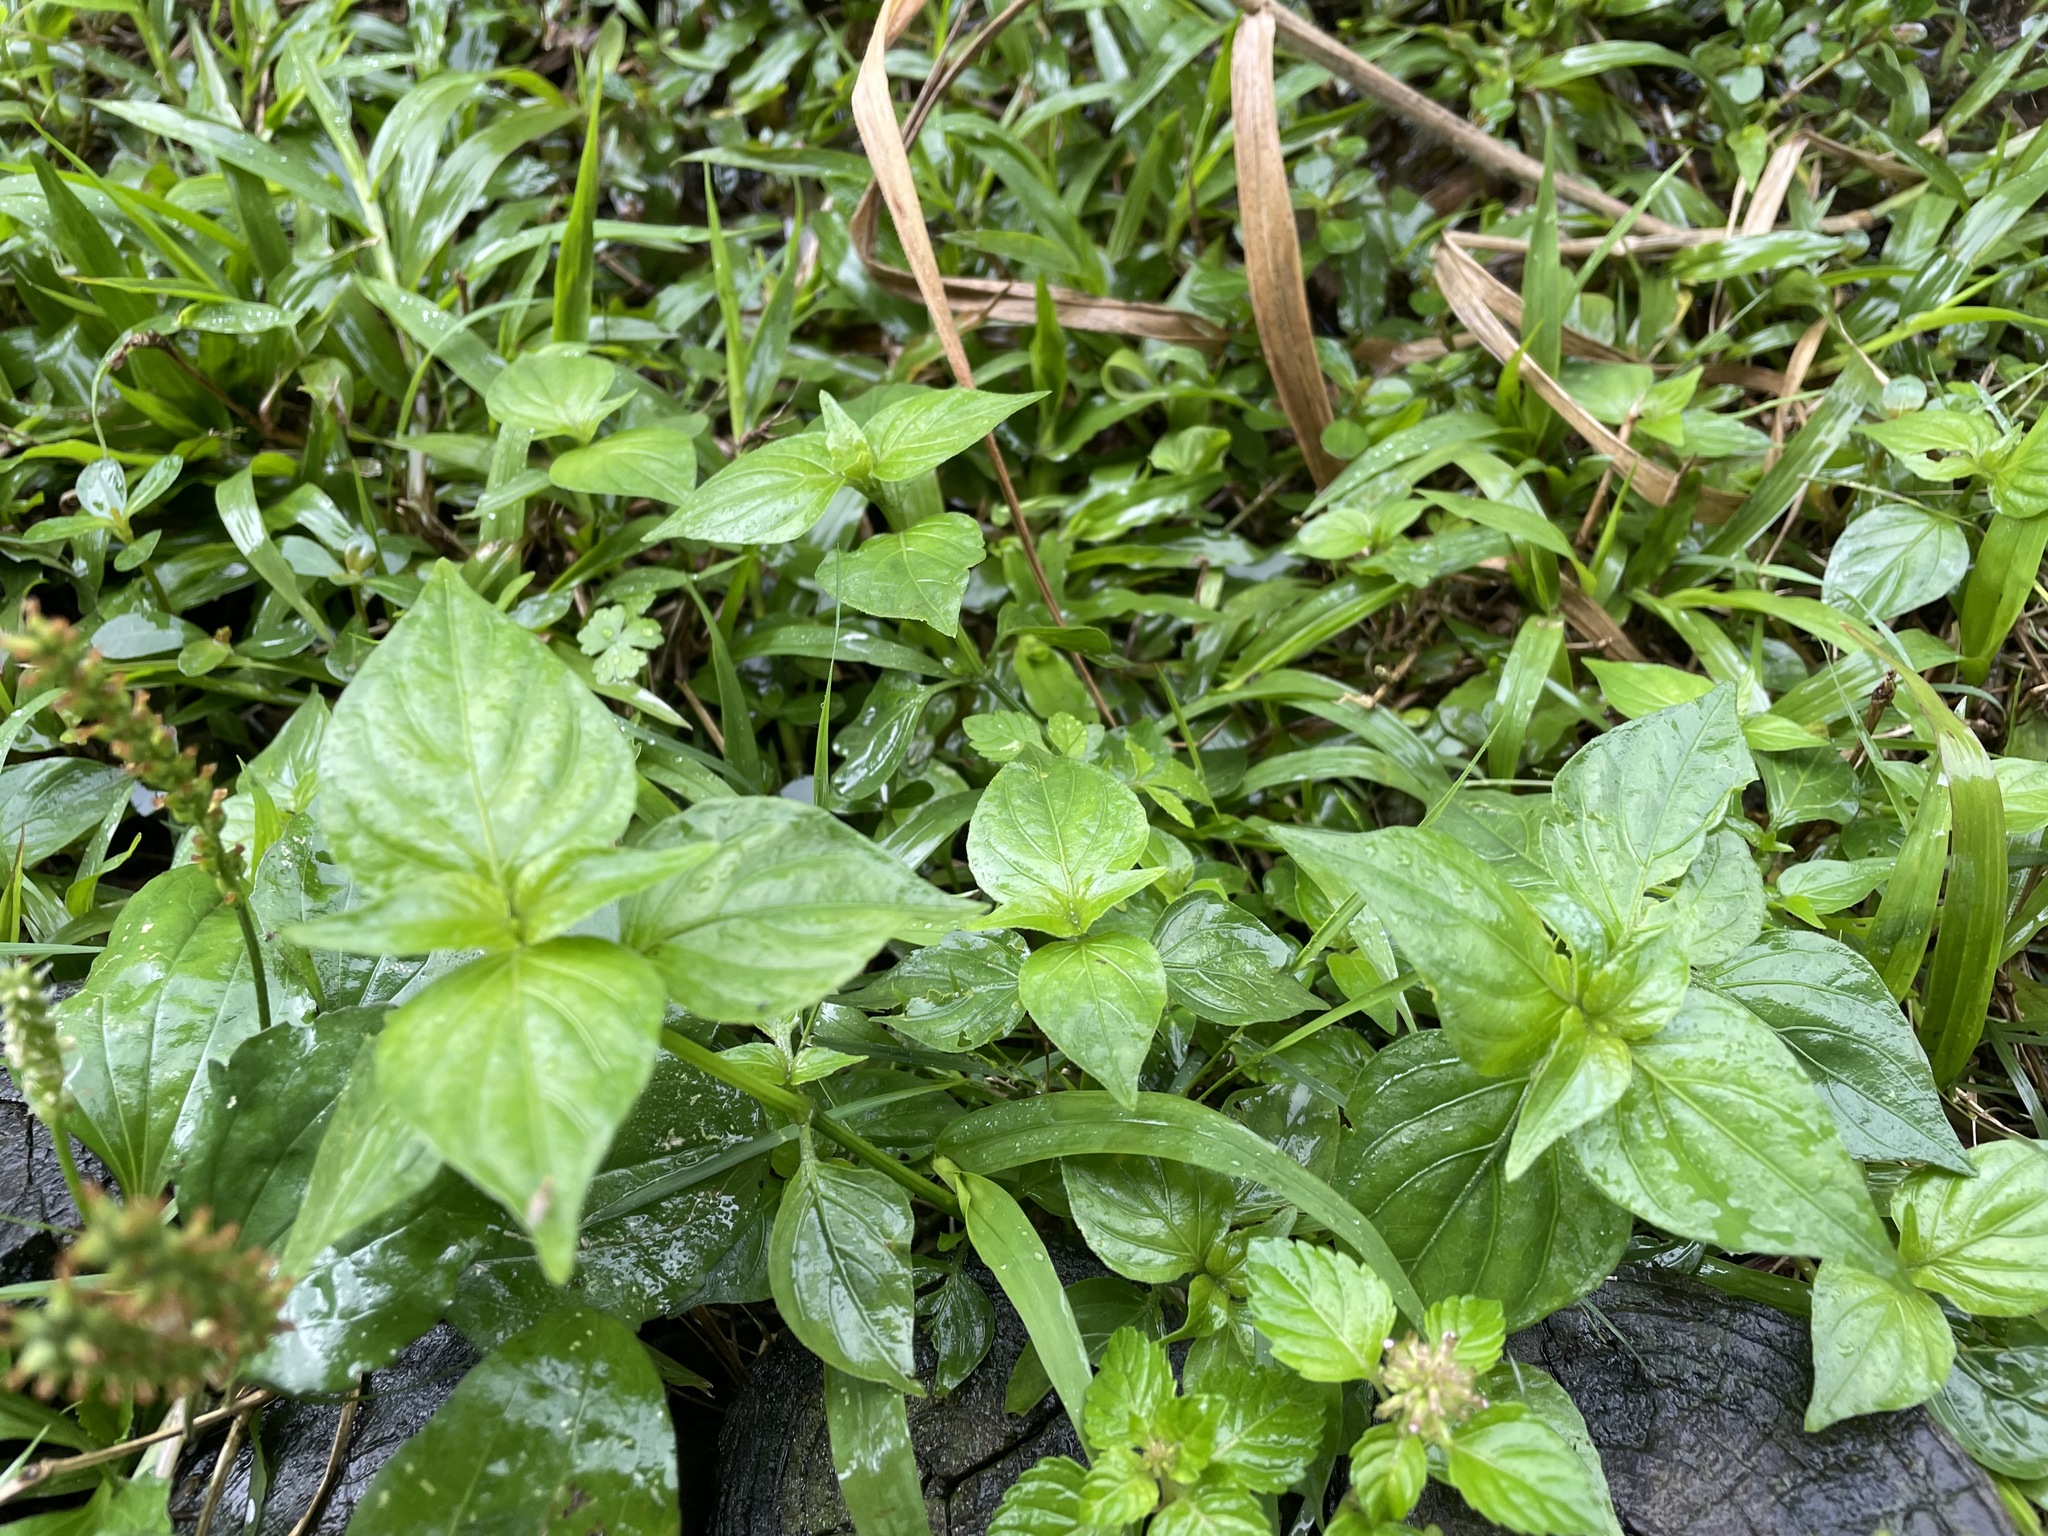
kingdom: Plantae
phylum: Tracheophyta
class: Magnoliopsida
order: Lamiales
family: Acanthaceae
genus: Dicliptera
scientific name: Dicliptera chinensis
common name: Chinese foldwing
